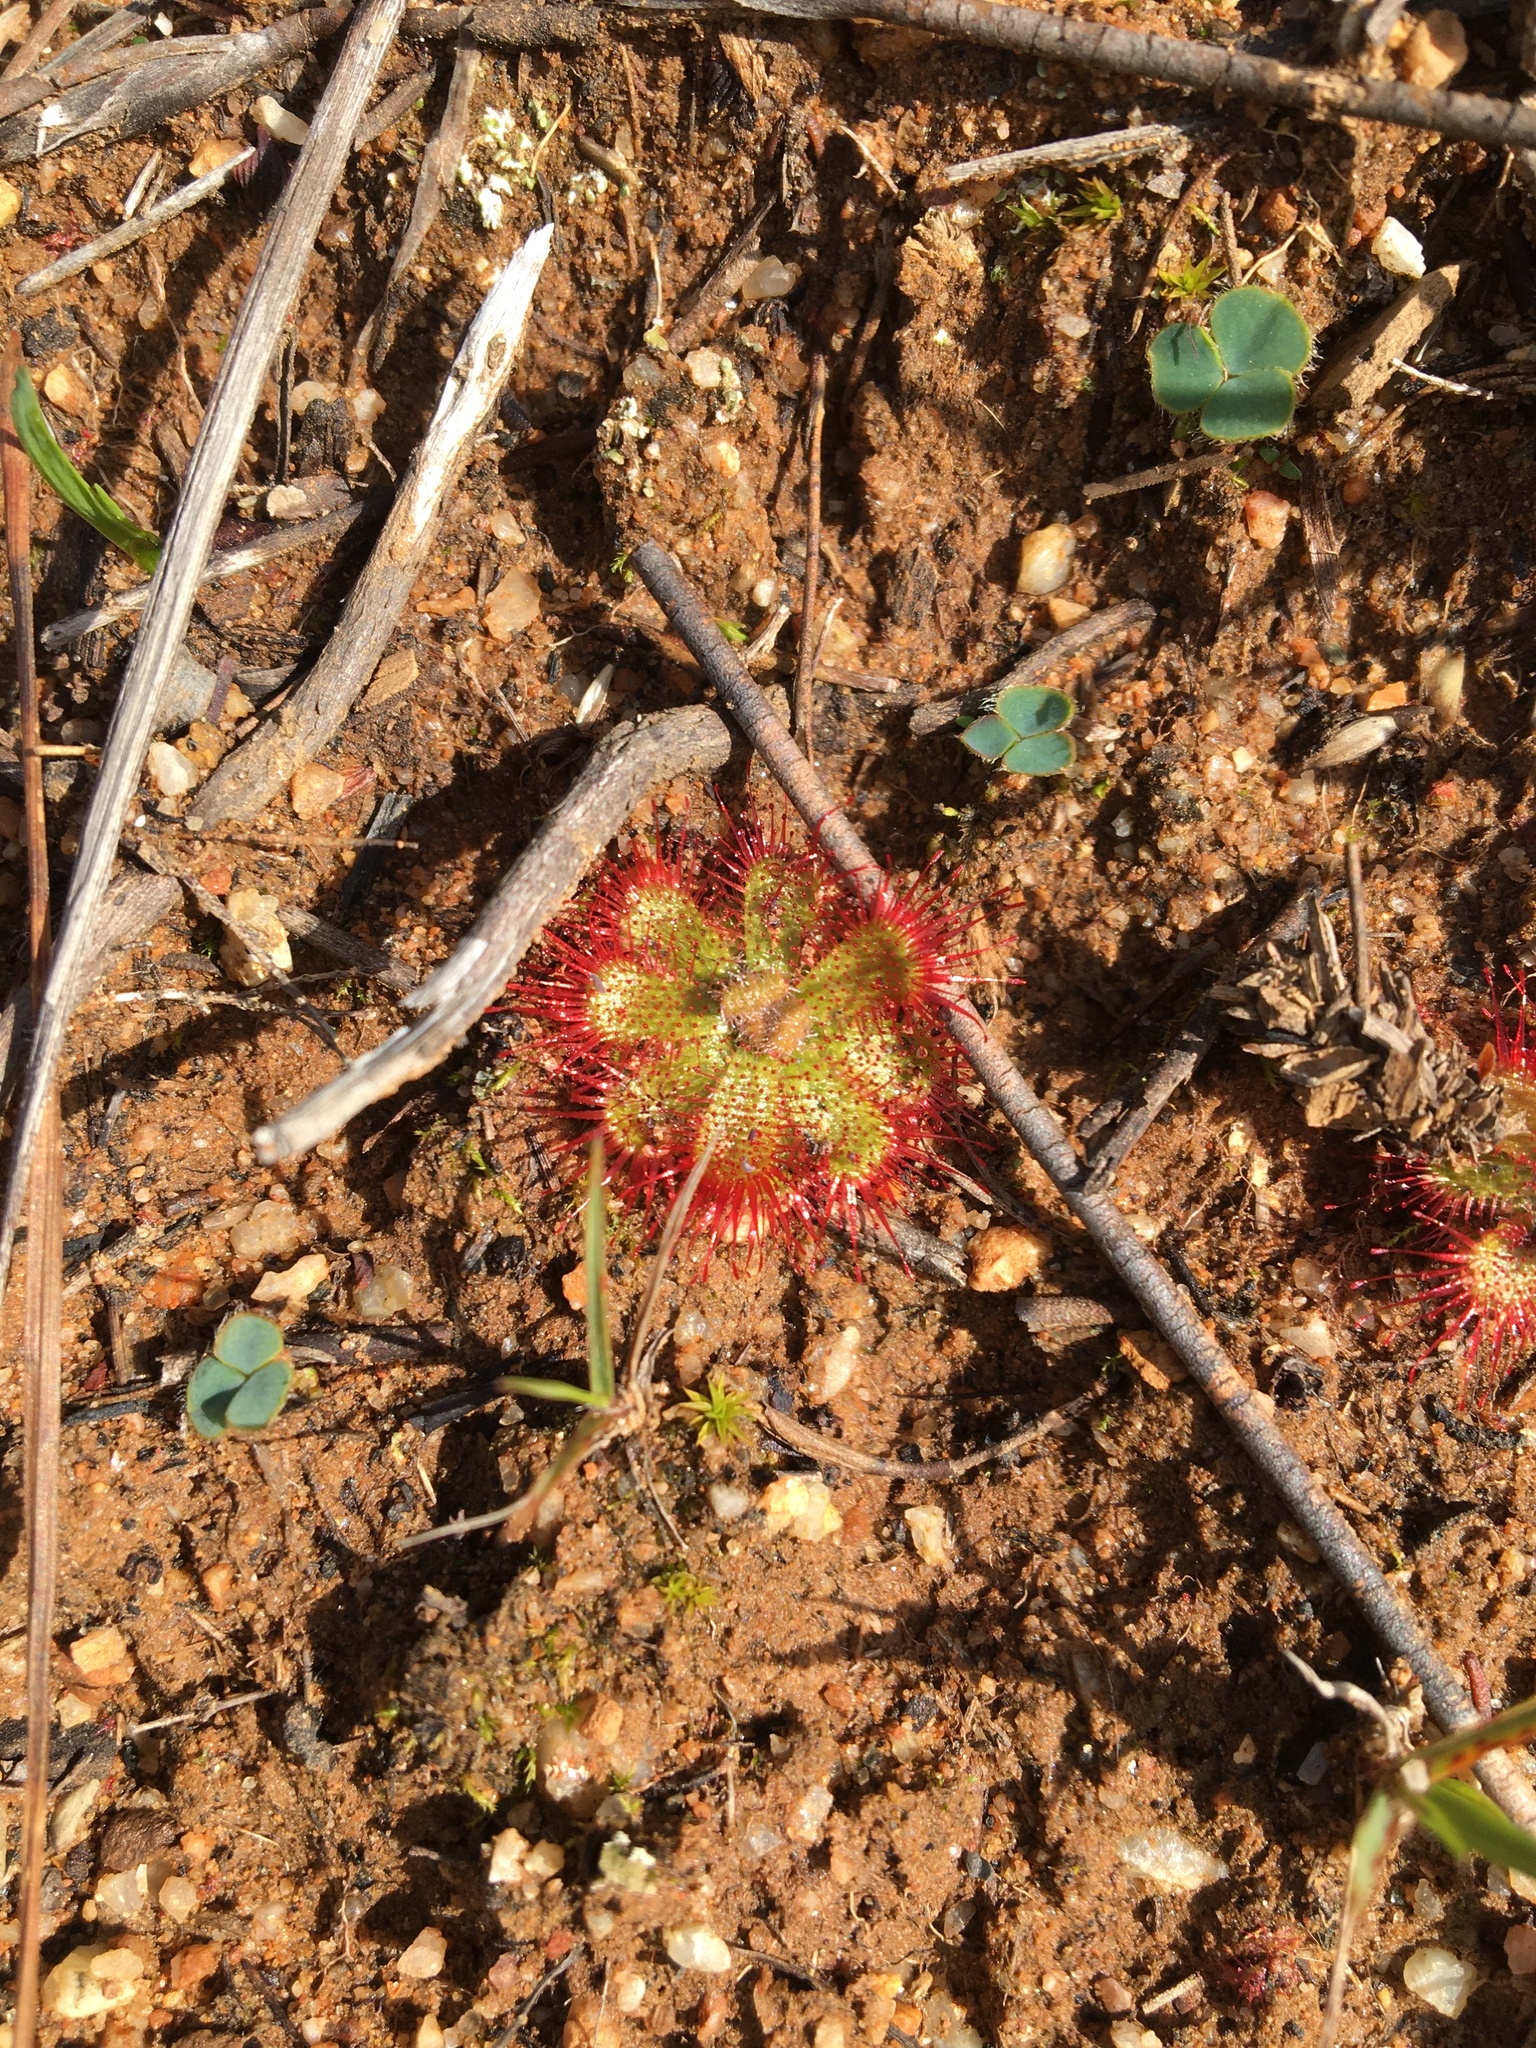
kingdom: Plantae
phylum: Tracheophyta
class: Magnoliopsida
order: Caryophyllales
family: Droseraceae
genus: Drosera
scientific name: Drosera trinervia
